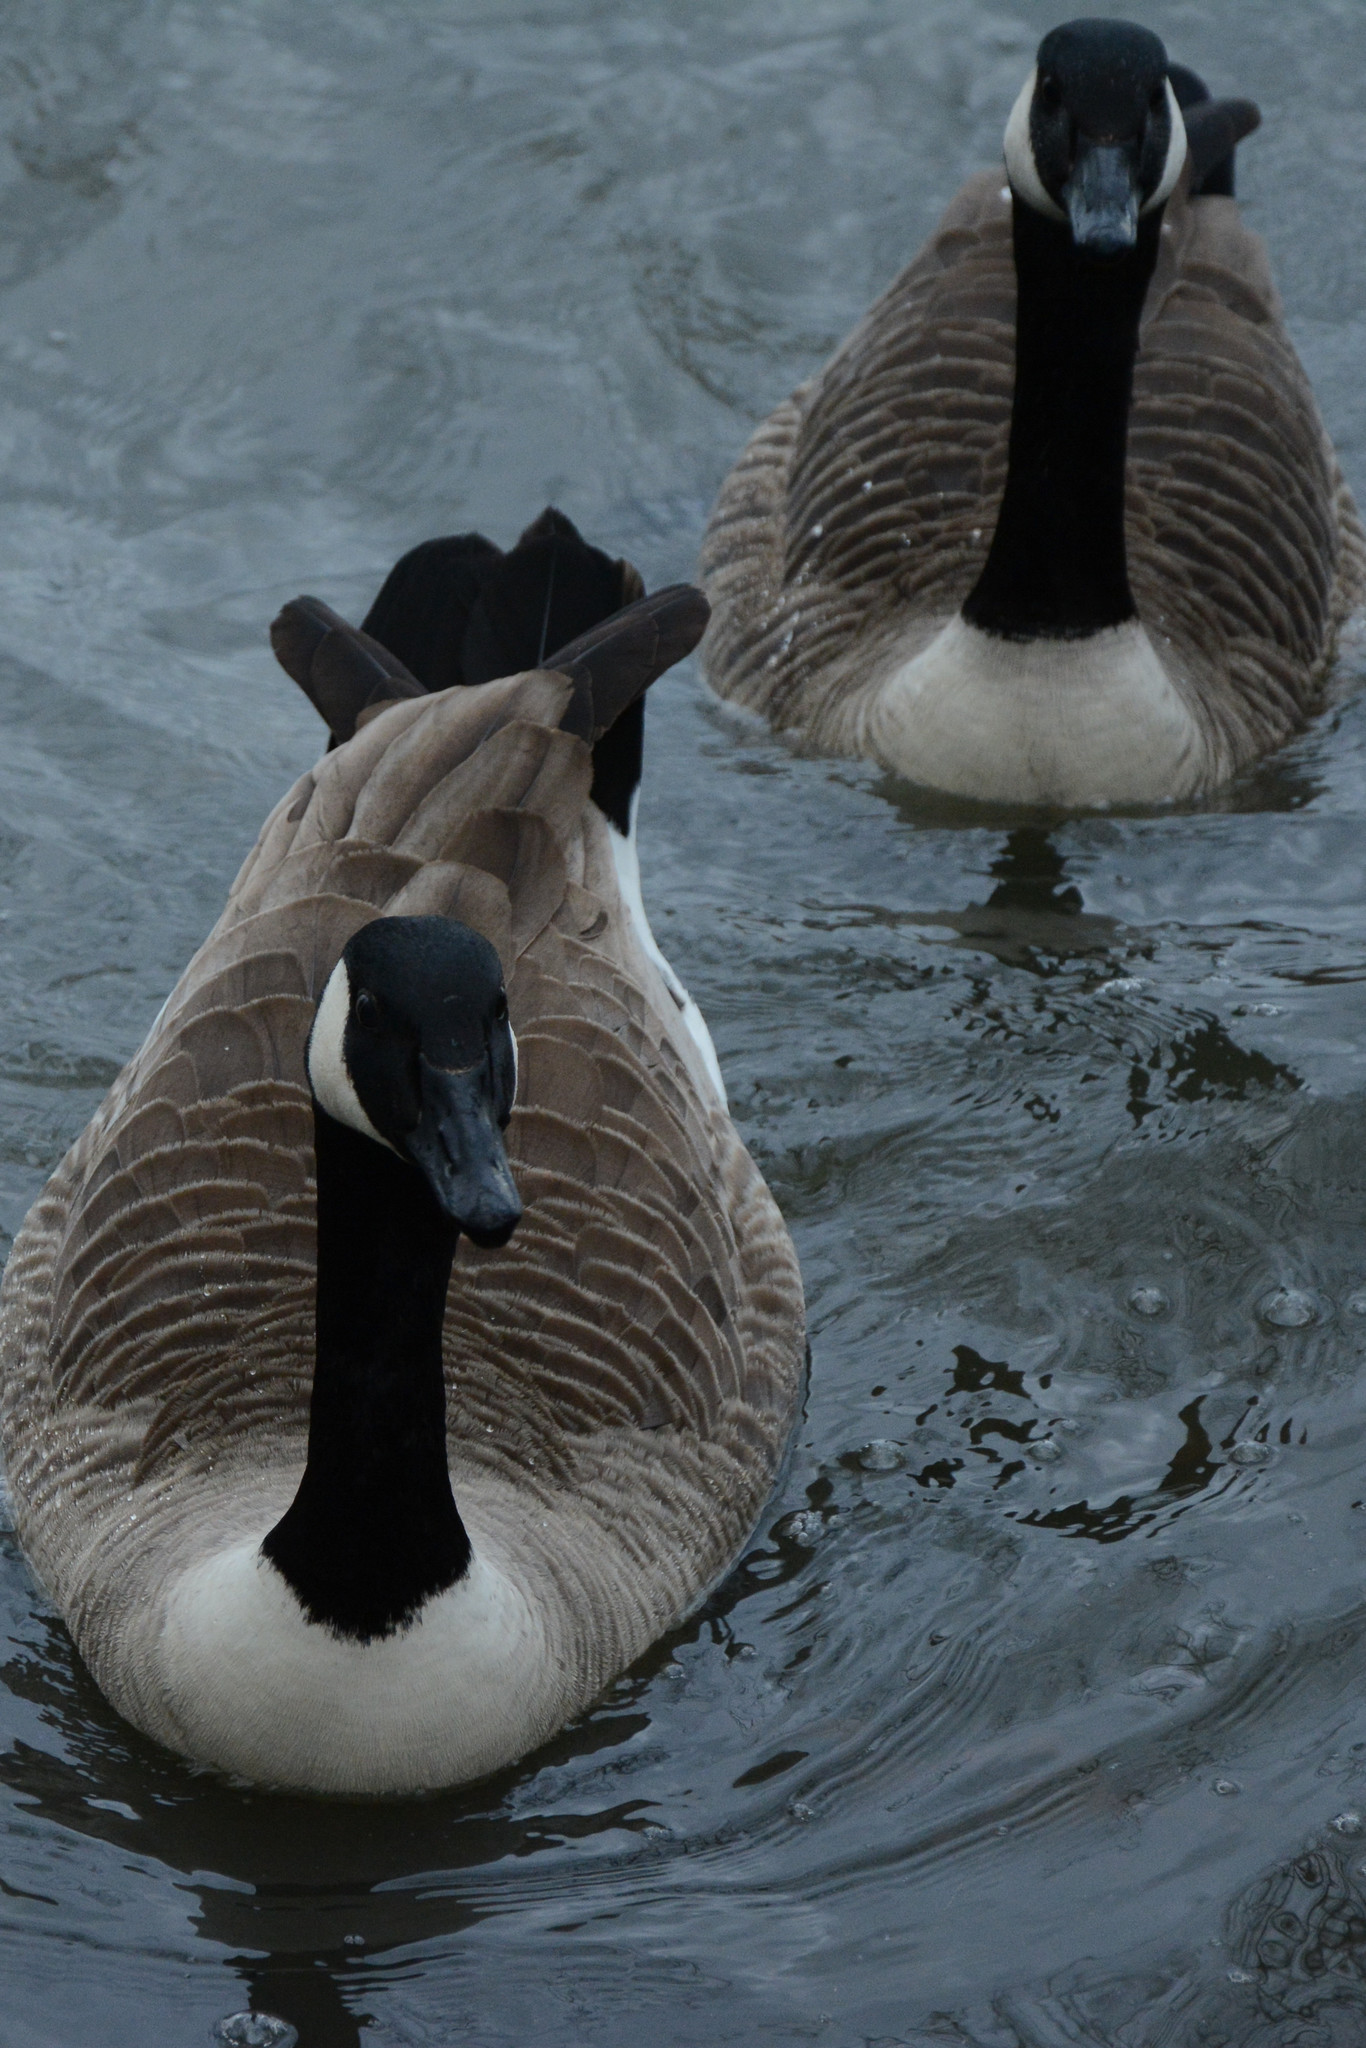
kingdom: Animalia
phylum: Chordata
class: Aves
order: Anseriformes
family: Anatidae
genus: Branta
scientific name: Branta canadensis
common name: Canada goose
